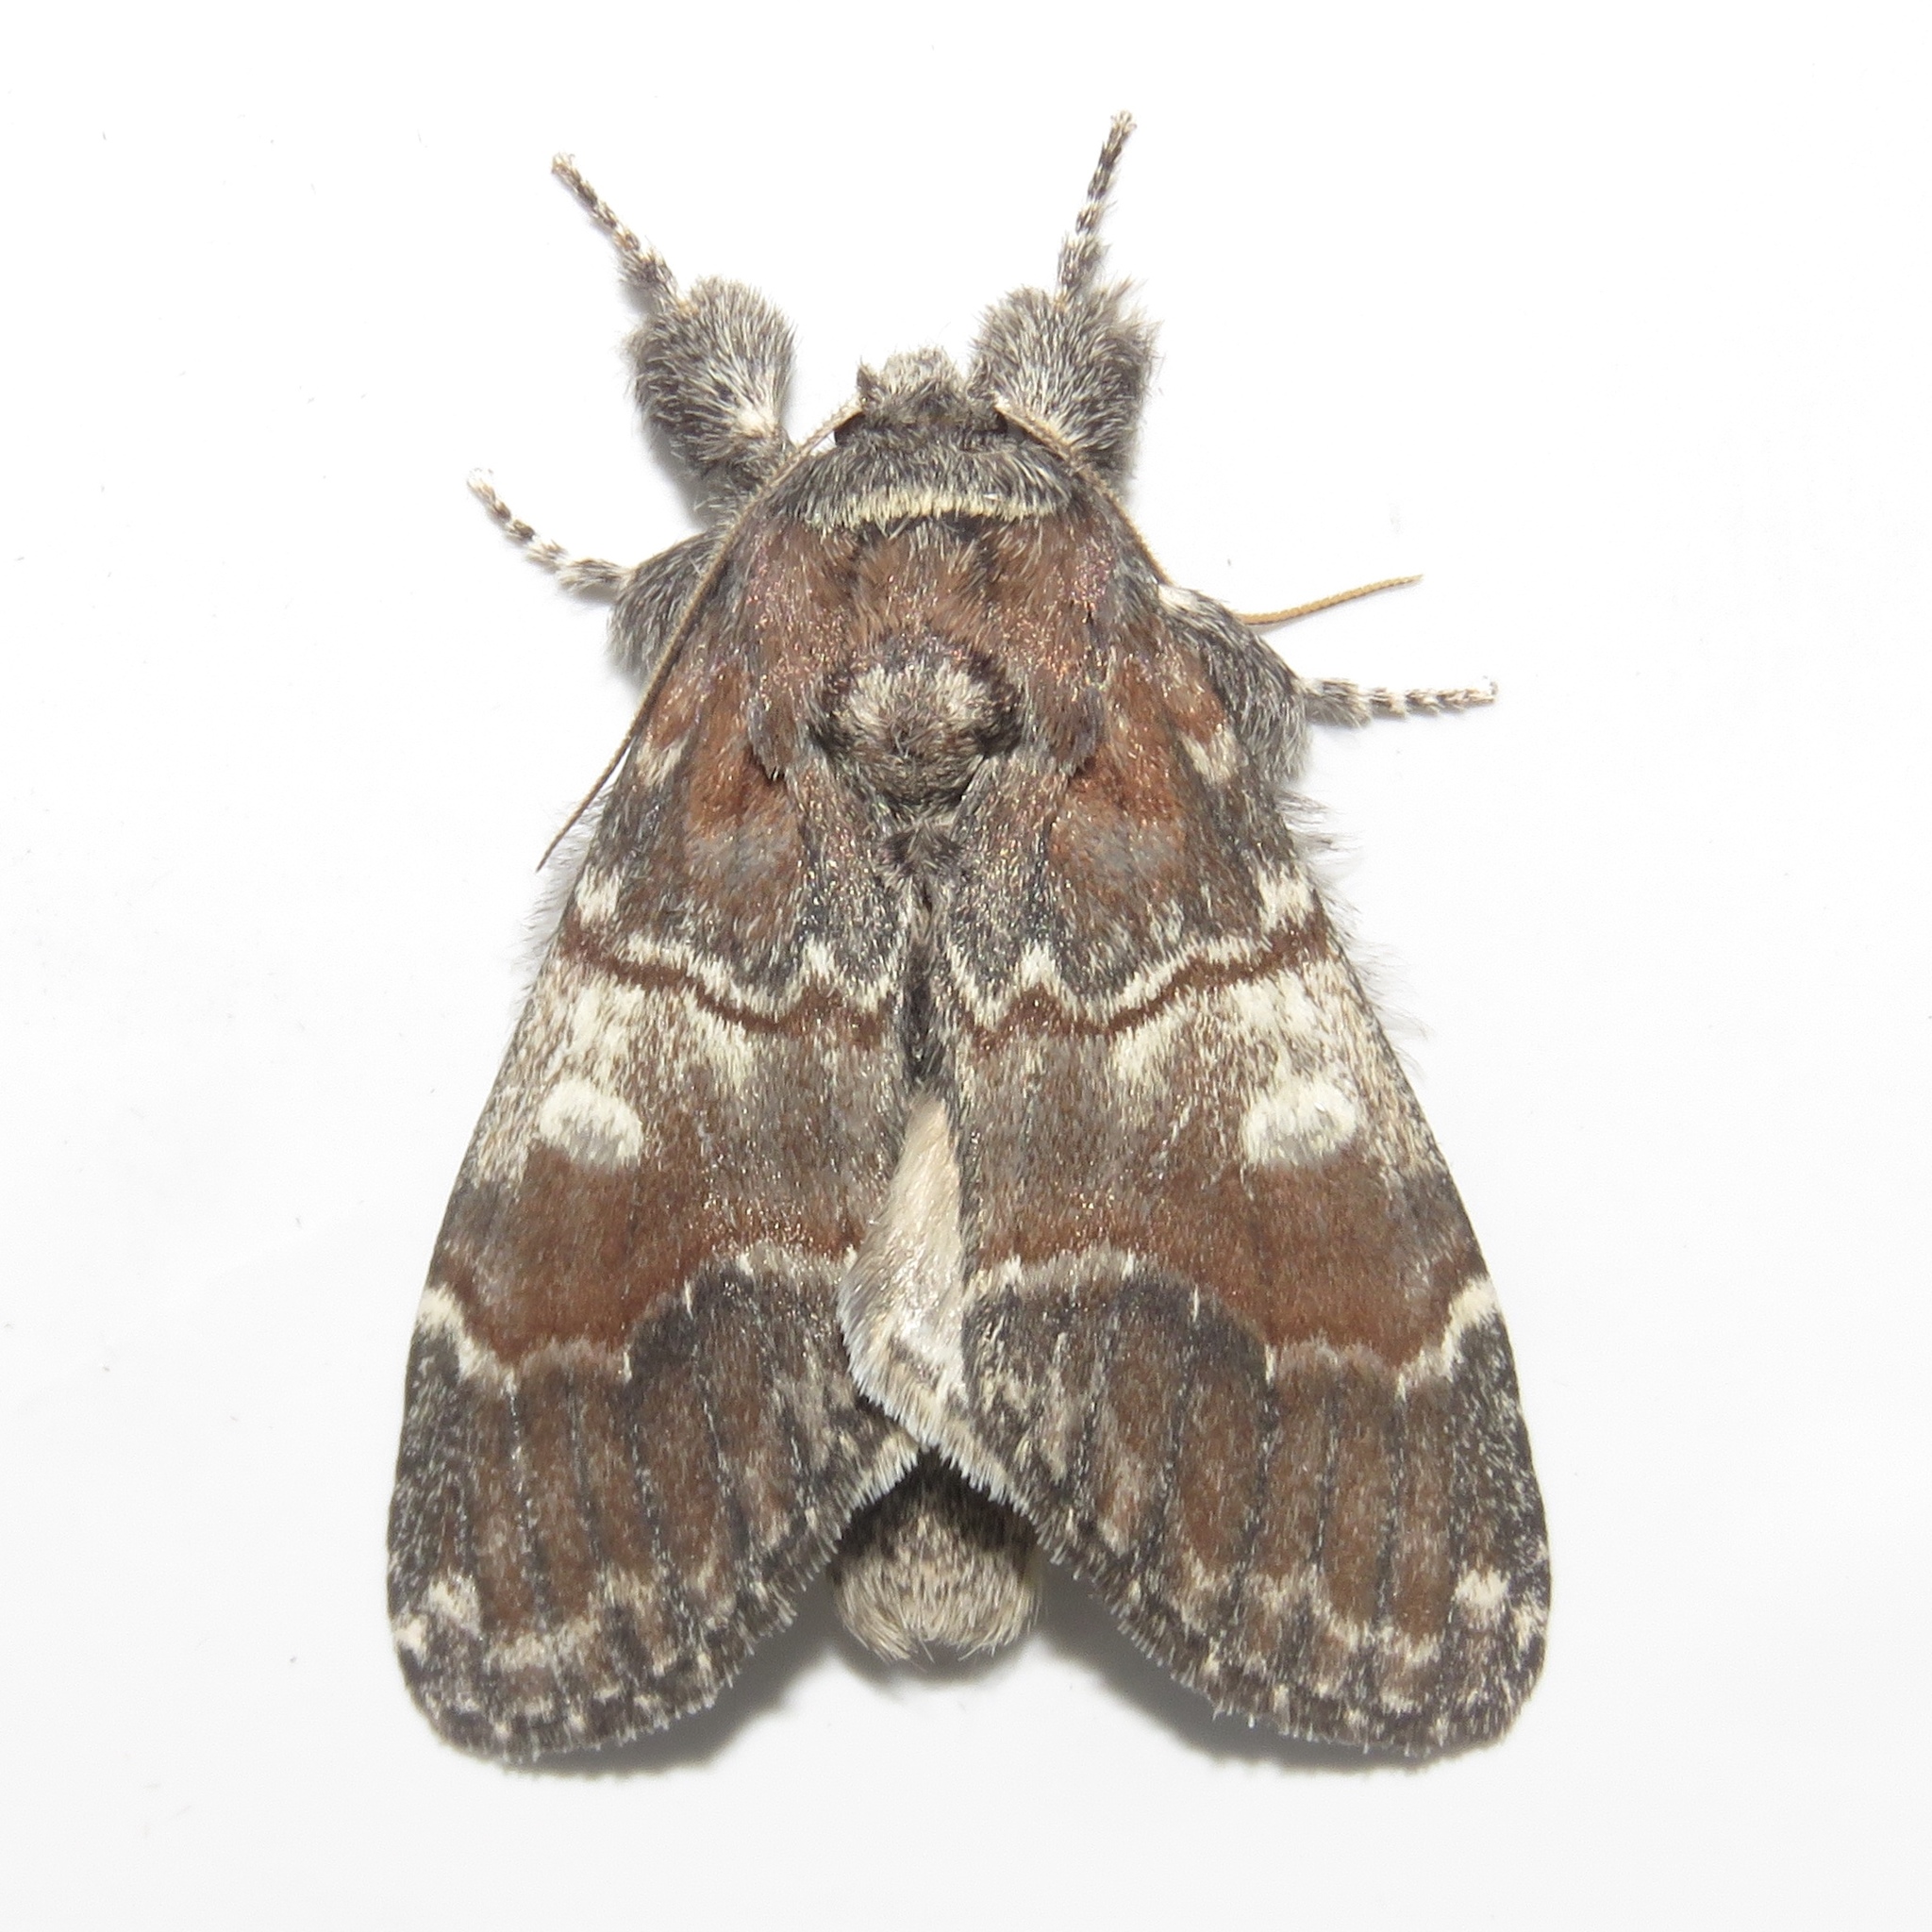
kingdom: Animalia
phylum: Arthropoda
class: Insecta
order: Lepidoptera
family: Notodontidae
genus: Peridea
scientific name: Peridea ferruginea
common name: Chocolate prominent
